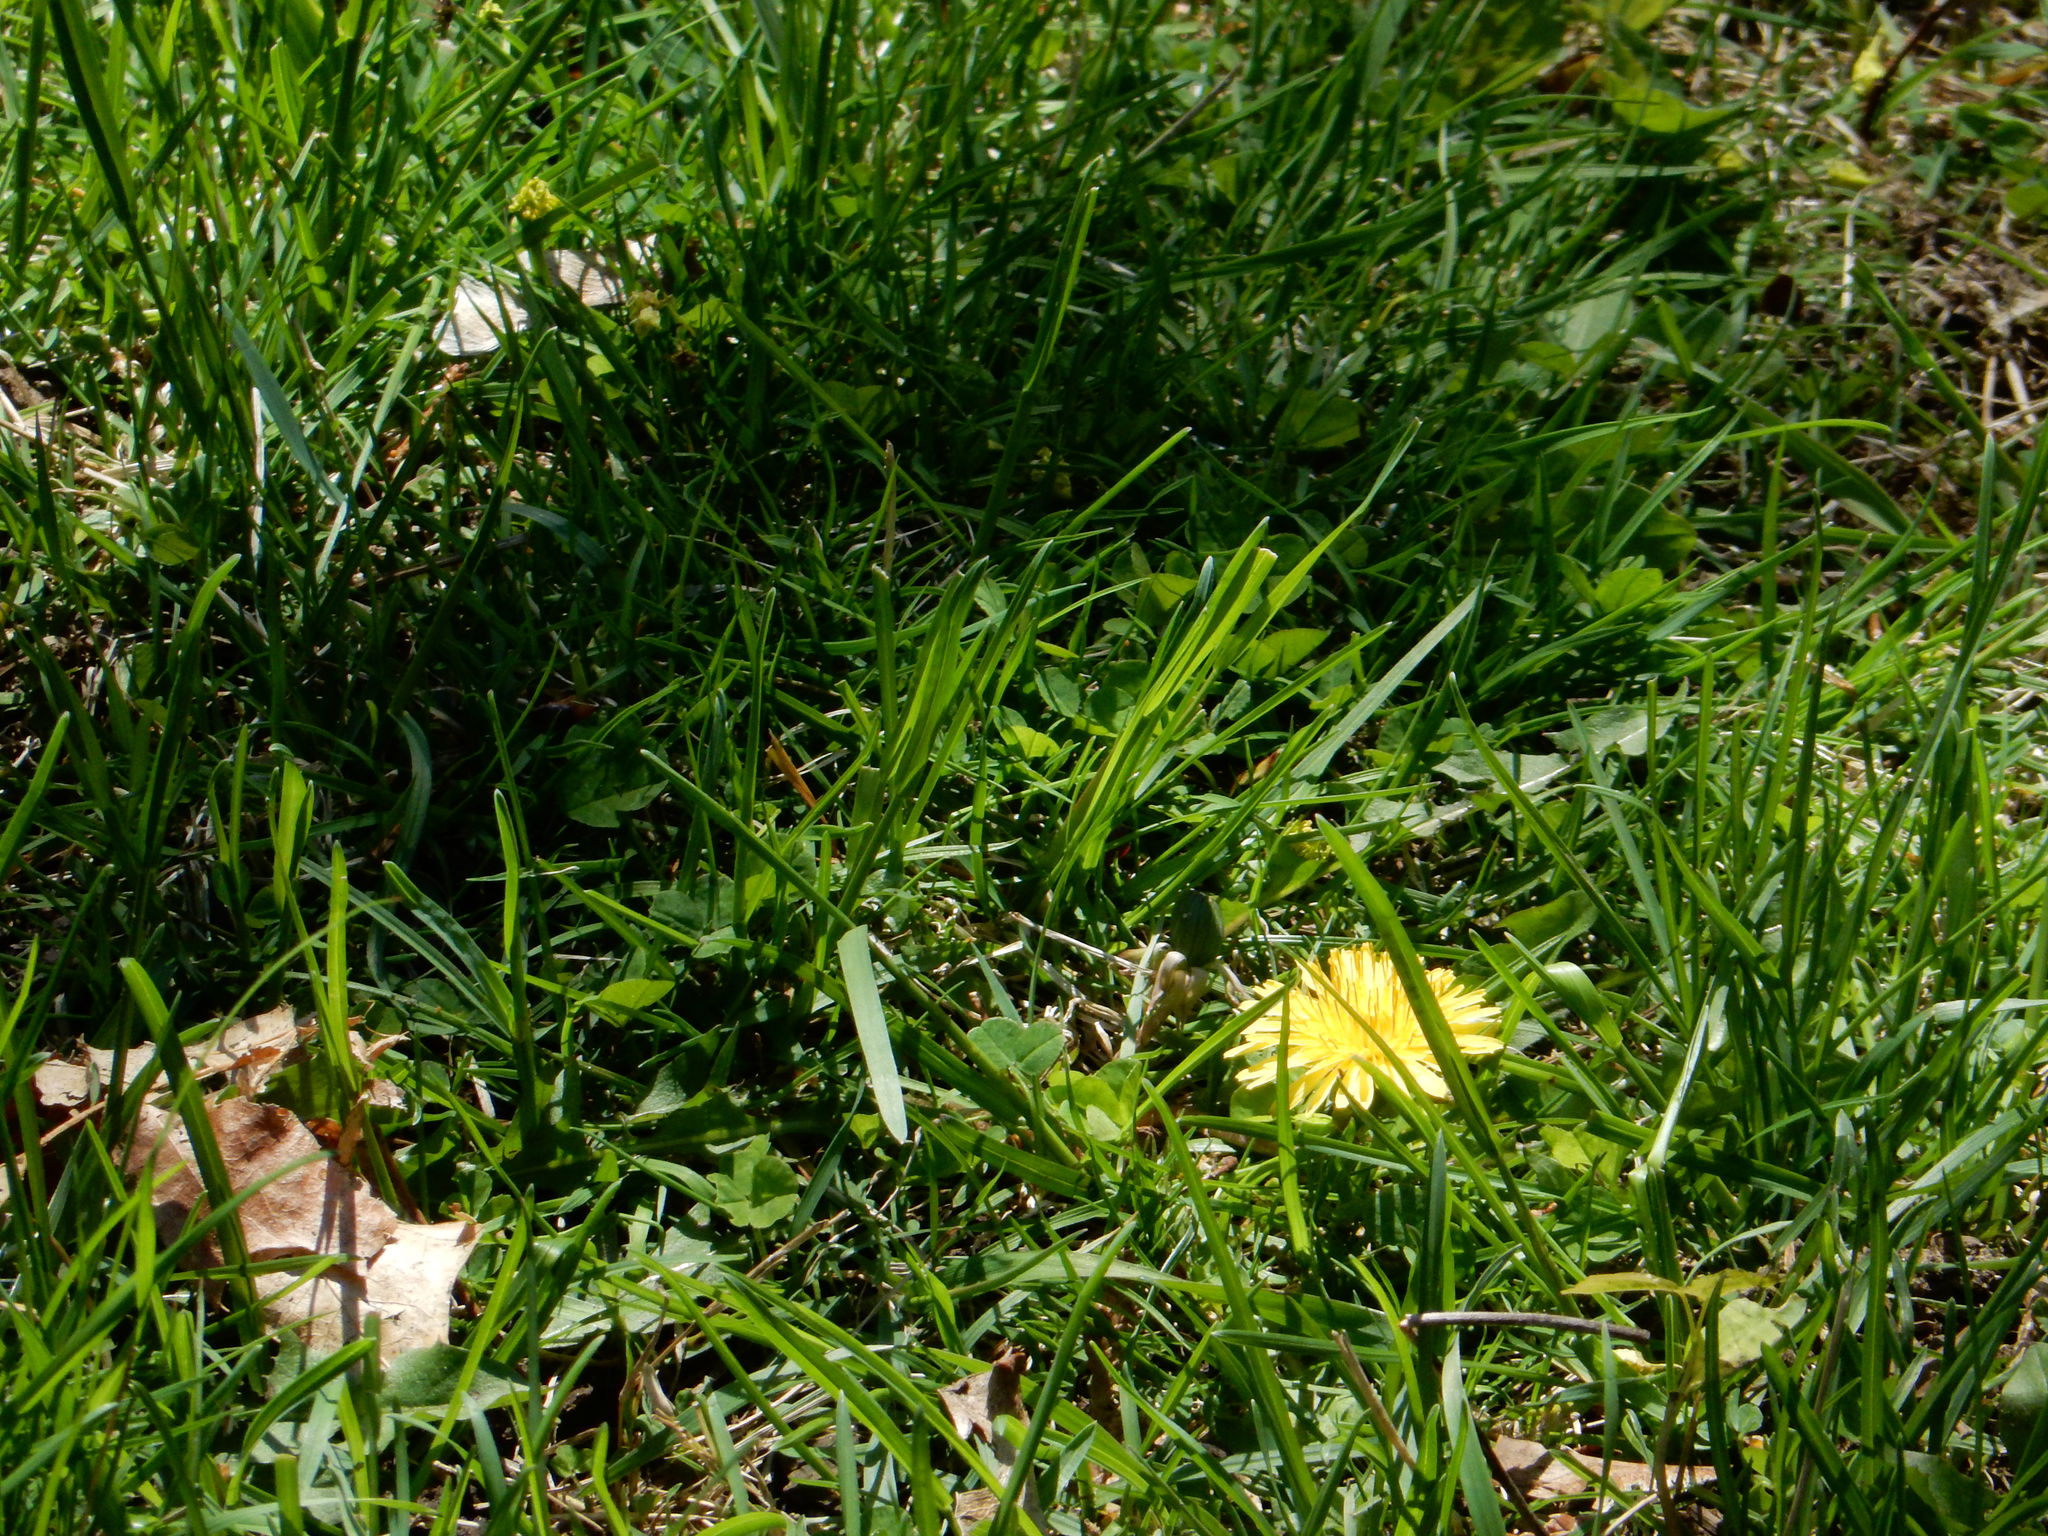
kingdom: Plantae
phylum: Tracheophyta
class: Magnoliopsida
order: Asterales
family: Asteraceae
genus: Taraxacum
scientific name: Taraxacum
